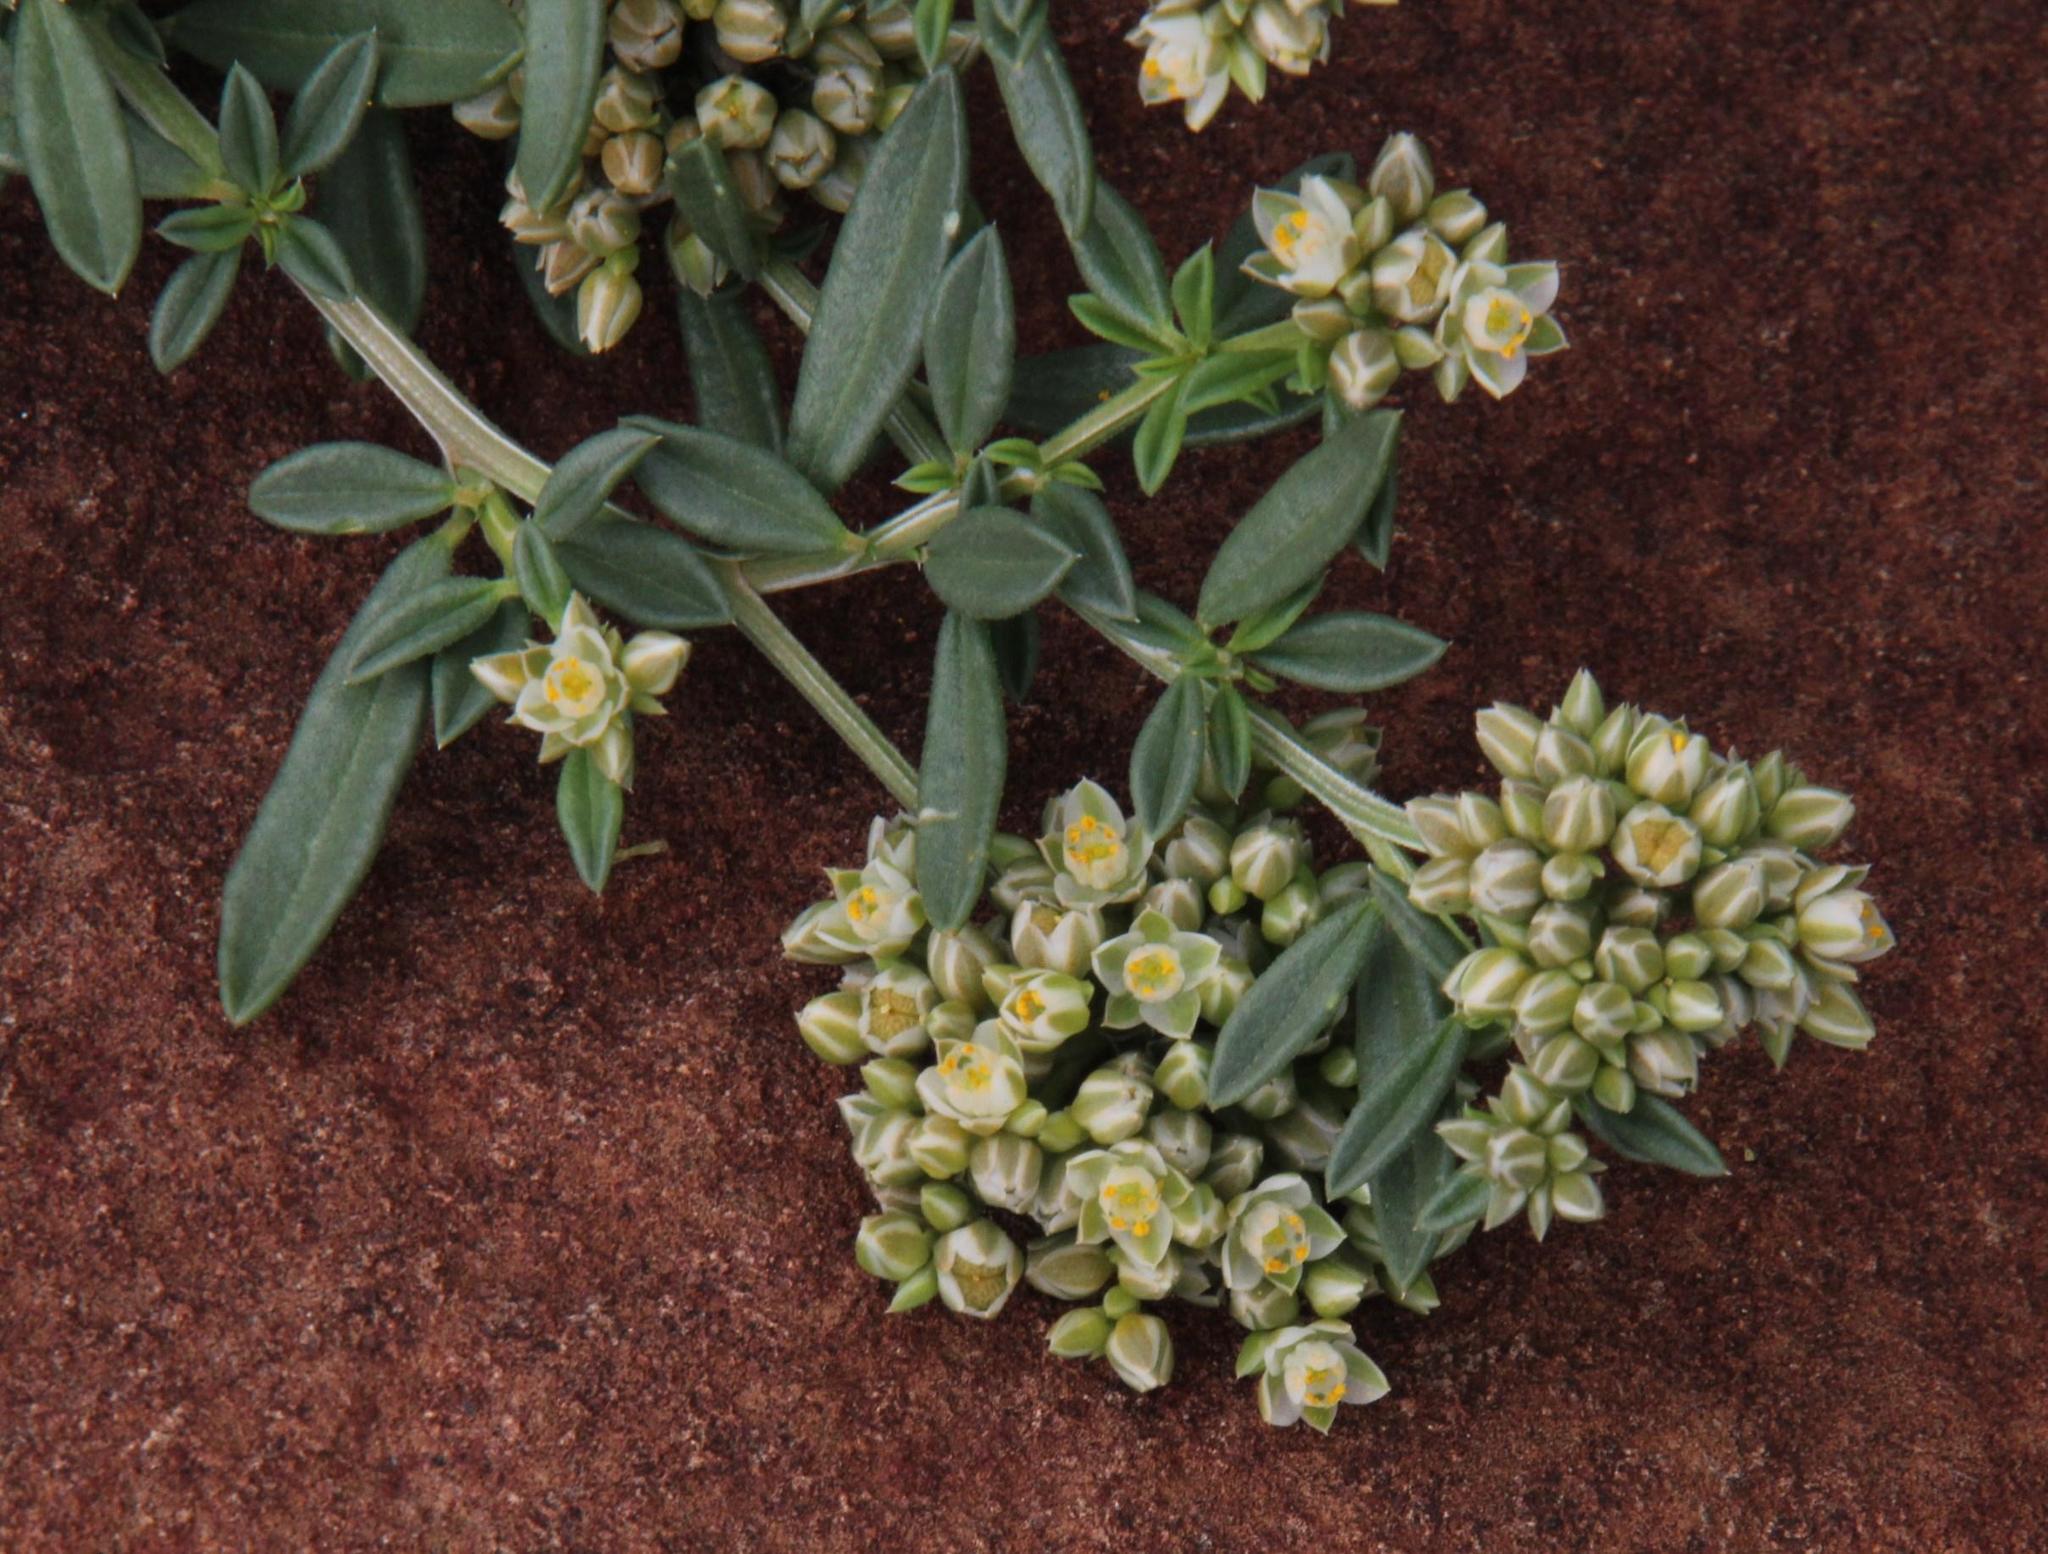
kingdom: Plantae
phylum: Tracheophyta
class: Magnoliopsida
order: Caryophyllales
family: Limeaceae
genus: Limeum
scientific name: Limeum aethiopicum
